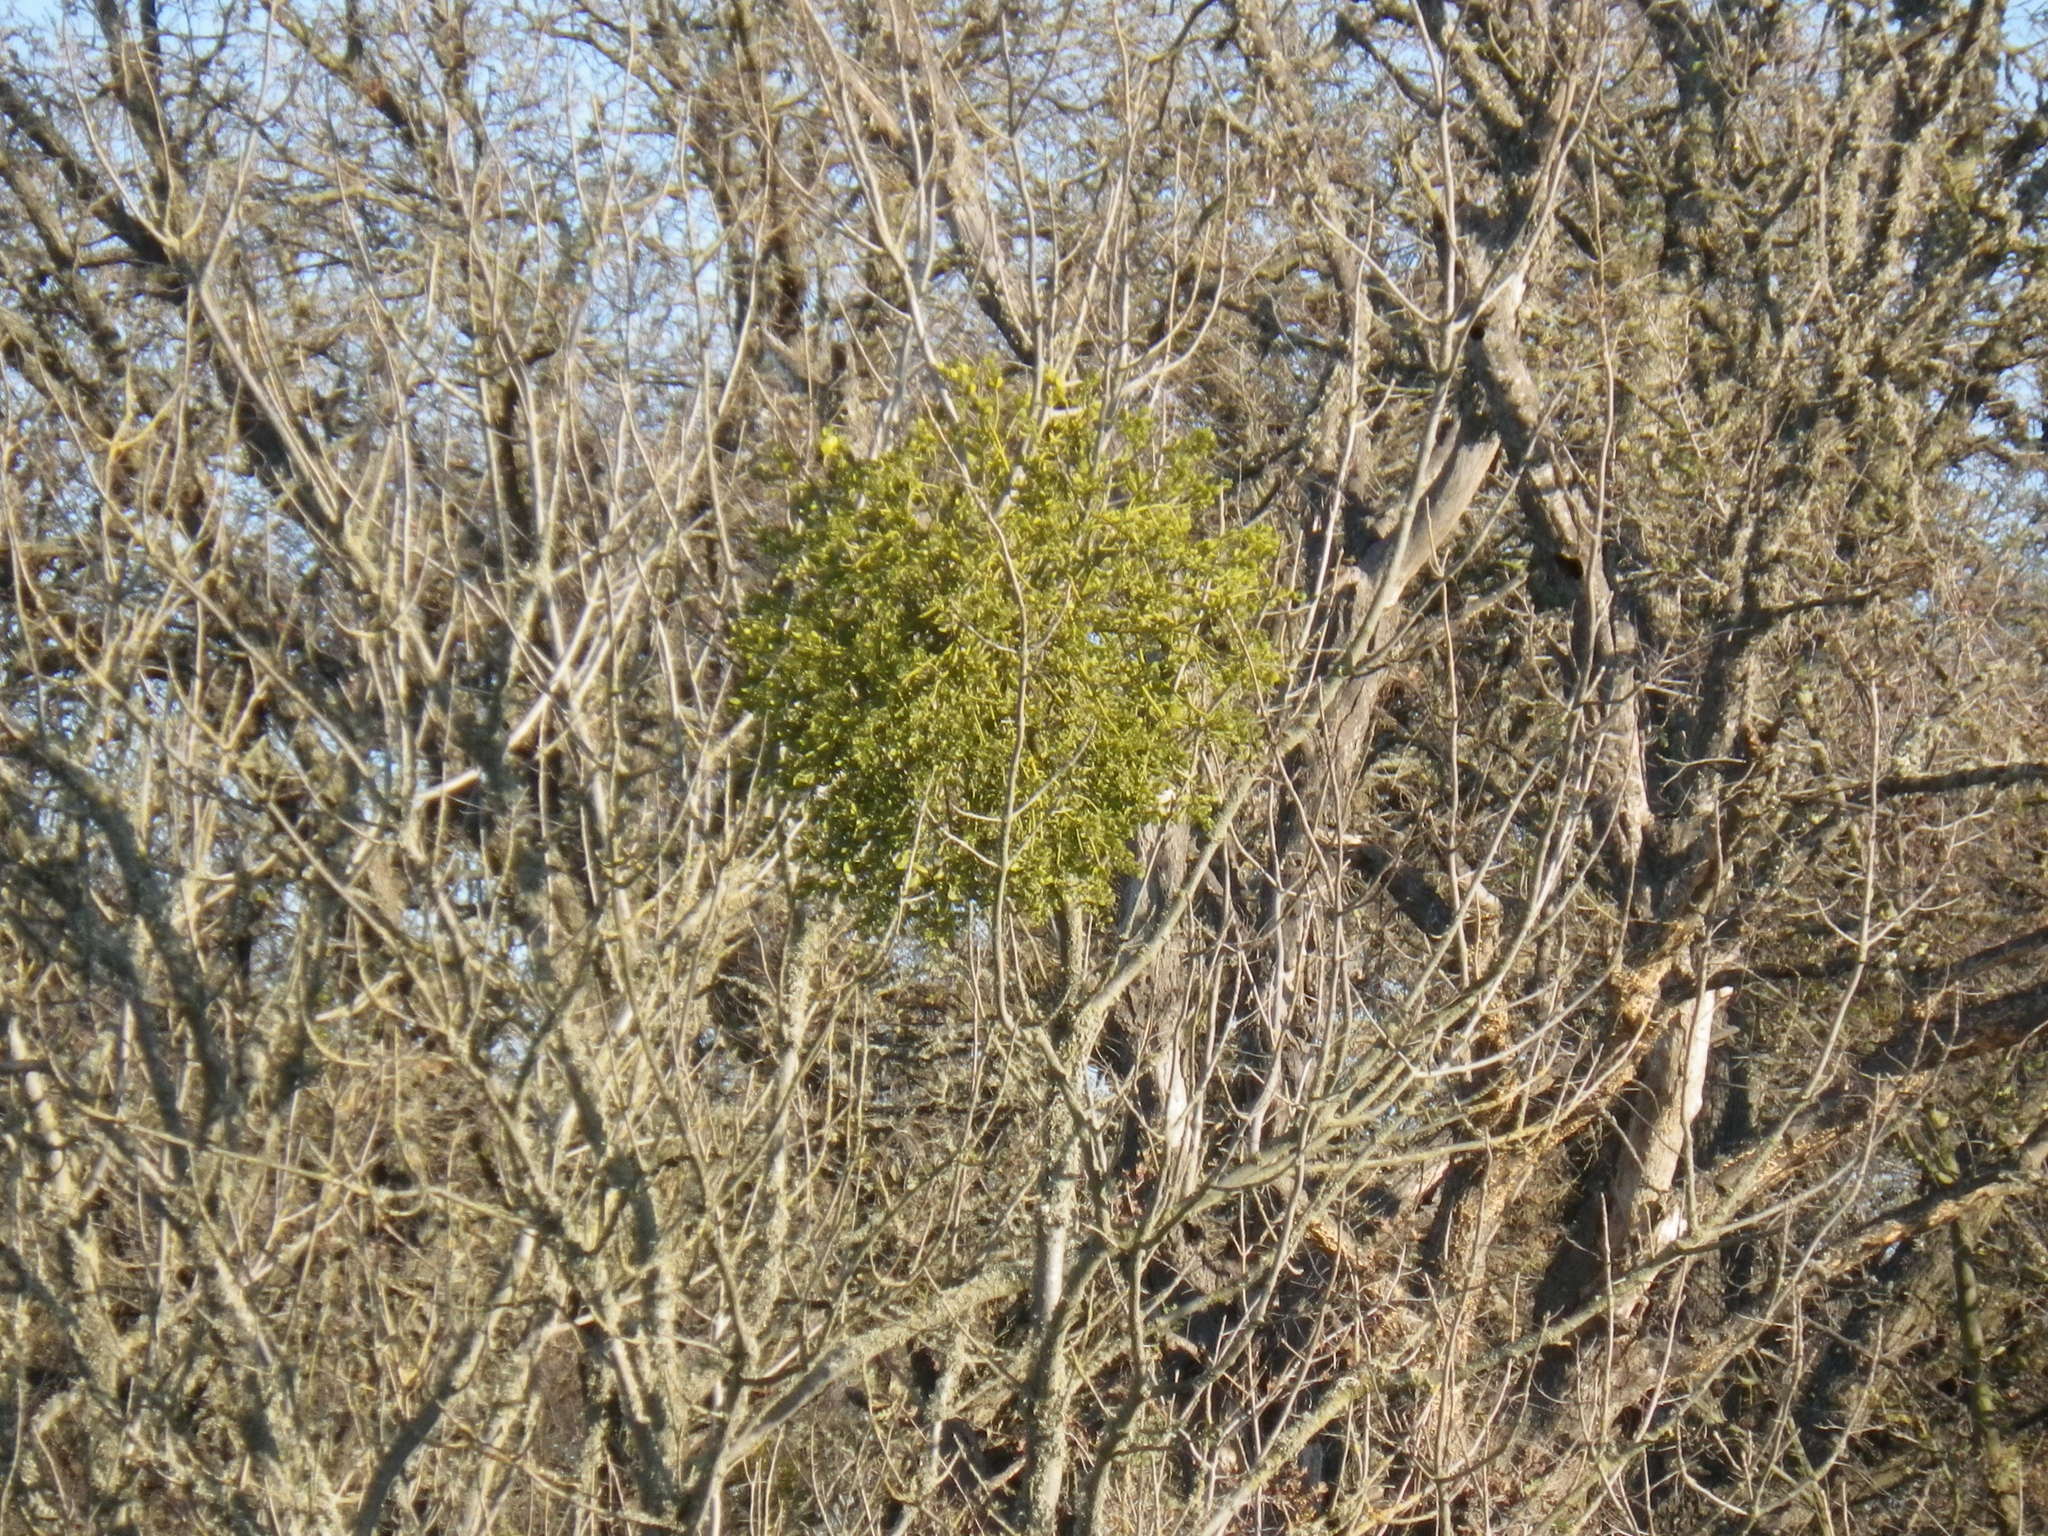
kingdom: Plantae
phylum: Tracheophyta
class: Magnoliopsida
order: Santalales
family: Viscaceae
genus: Phoradendron
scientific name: Phoradendron leucarpum
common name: Pacific mistletoe
